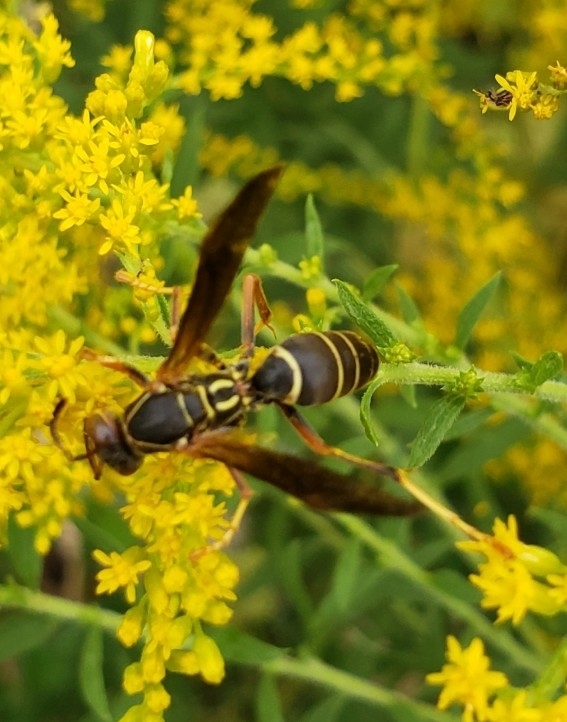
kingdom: Animalia
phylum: Arthropoda
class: Insecta
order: Hymenoptera
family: Eumenidae
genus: Polistes
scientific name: Polistes fuscatus
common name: Dark paper wasp
